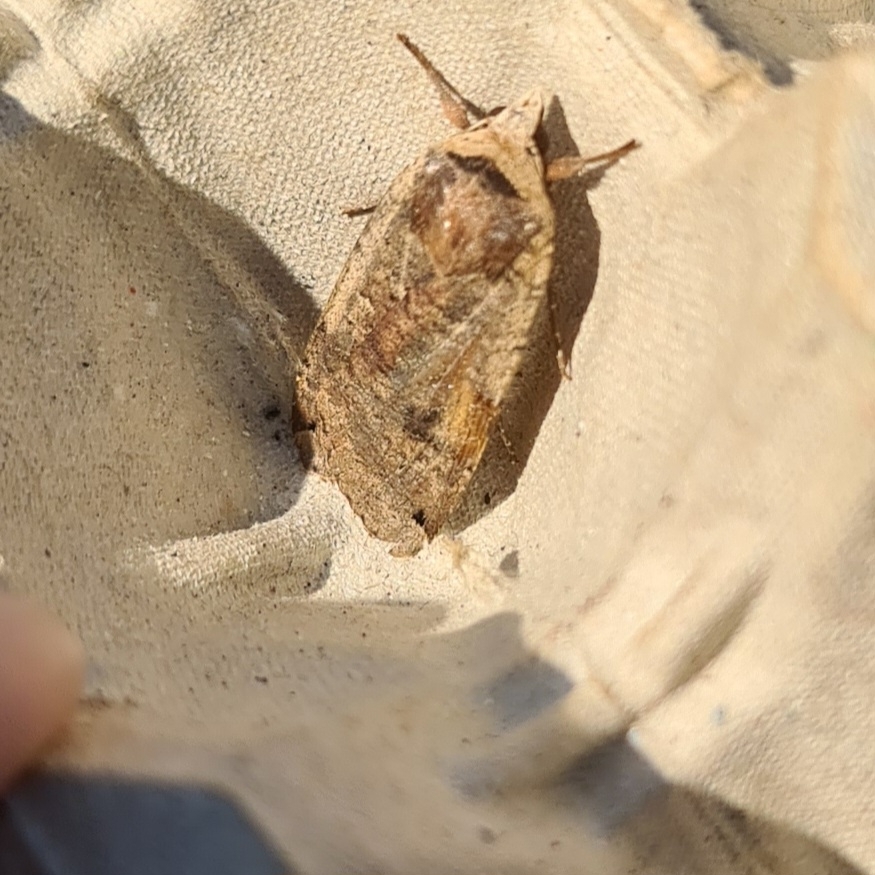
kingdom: Animalia
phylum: Arthropoda
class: Insecta
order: Lepidoptera
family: Noctuidae
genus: Noctua
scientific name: Noctua pronuba
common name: Large yellow underwing
